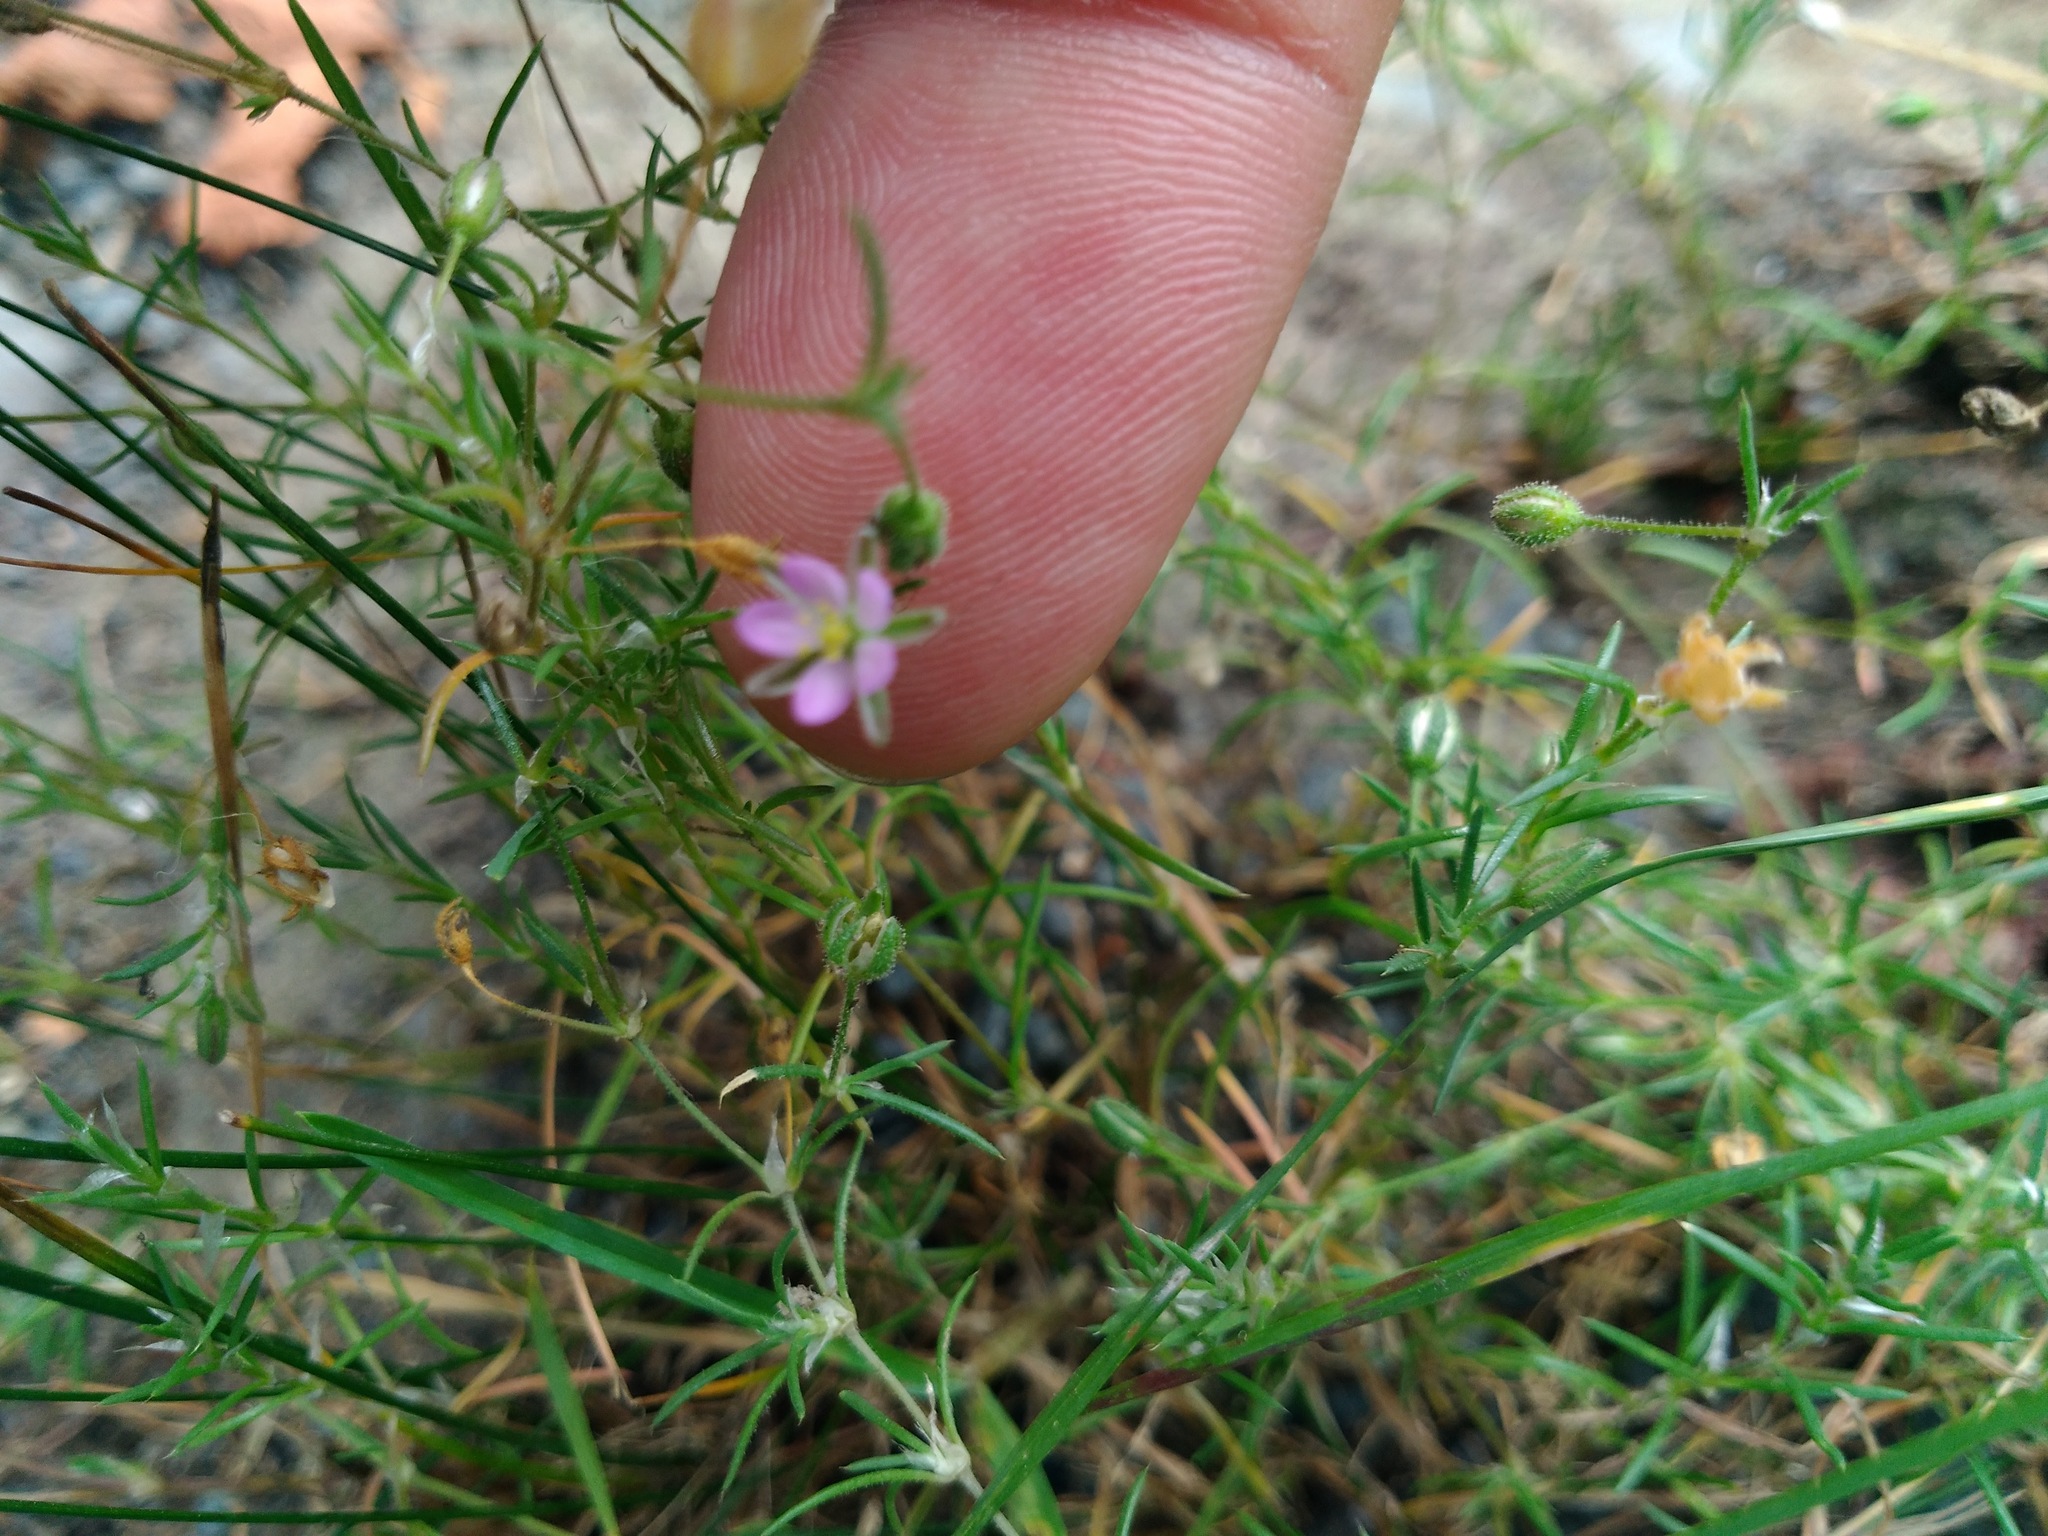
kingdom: Plantae
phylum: Tracheophyta
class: Magnoliopsida
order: Caryophyllales
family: Caryophyllaceae
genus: Spergularia
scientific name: Spergularia rubra
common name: Red sand-spurrey
